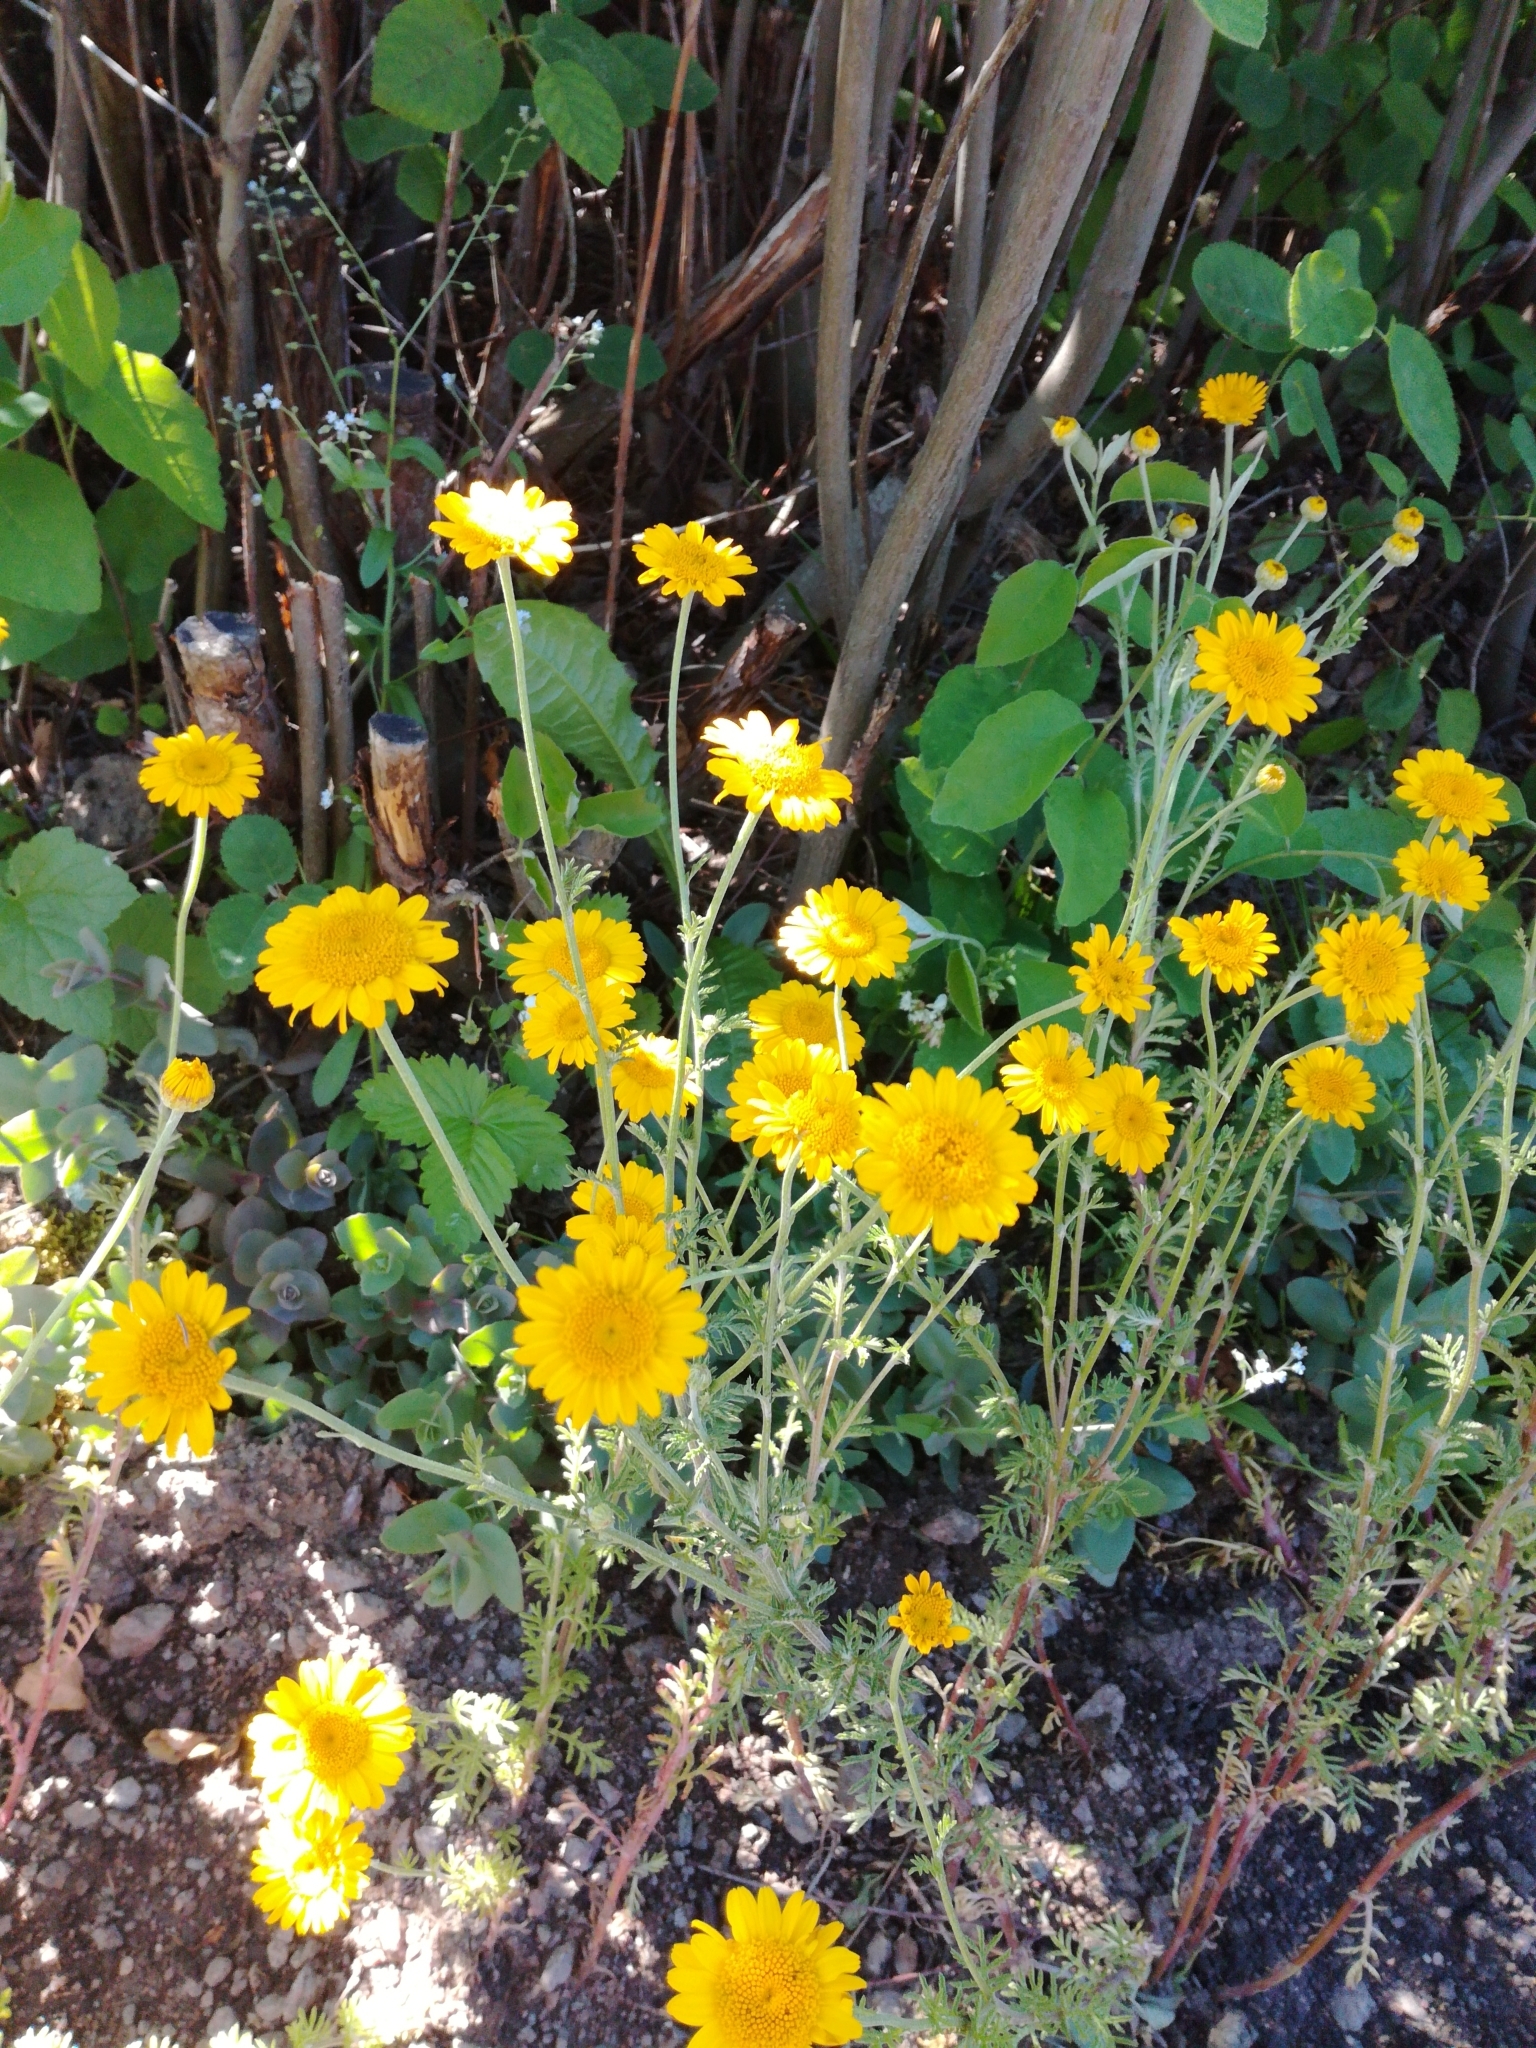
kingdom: Plantae
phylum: Tracheophyta
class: Magnoliopsida
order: Asterales
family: Asteraceae
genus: Cota
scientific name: Cota tinctoria
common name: Golden chamomile
